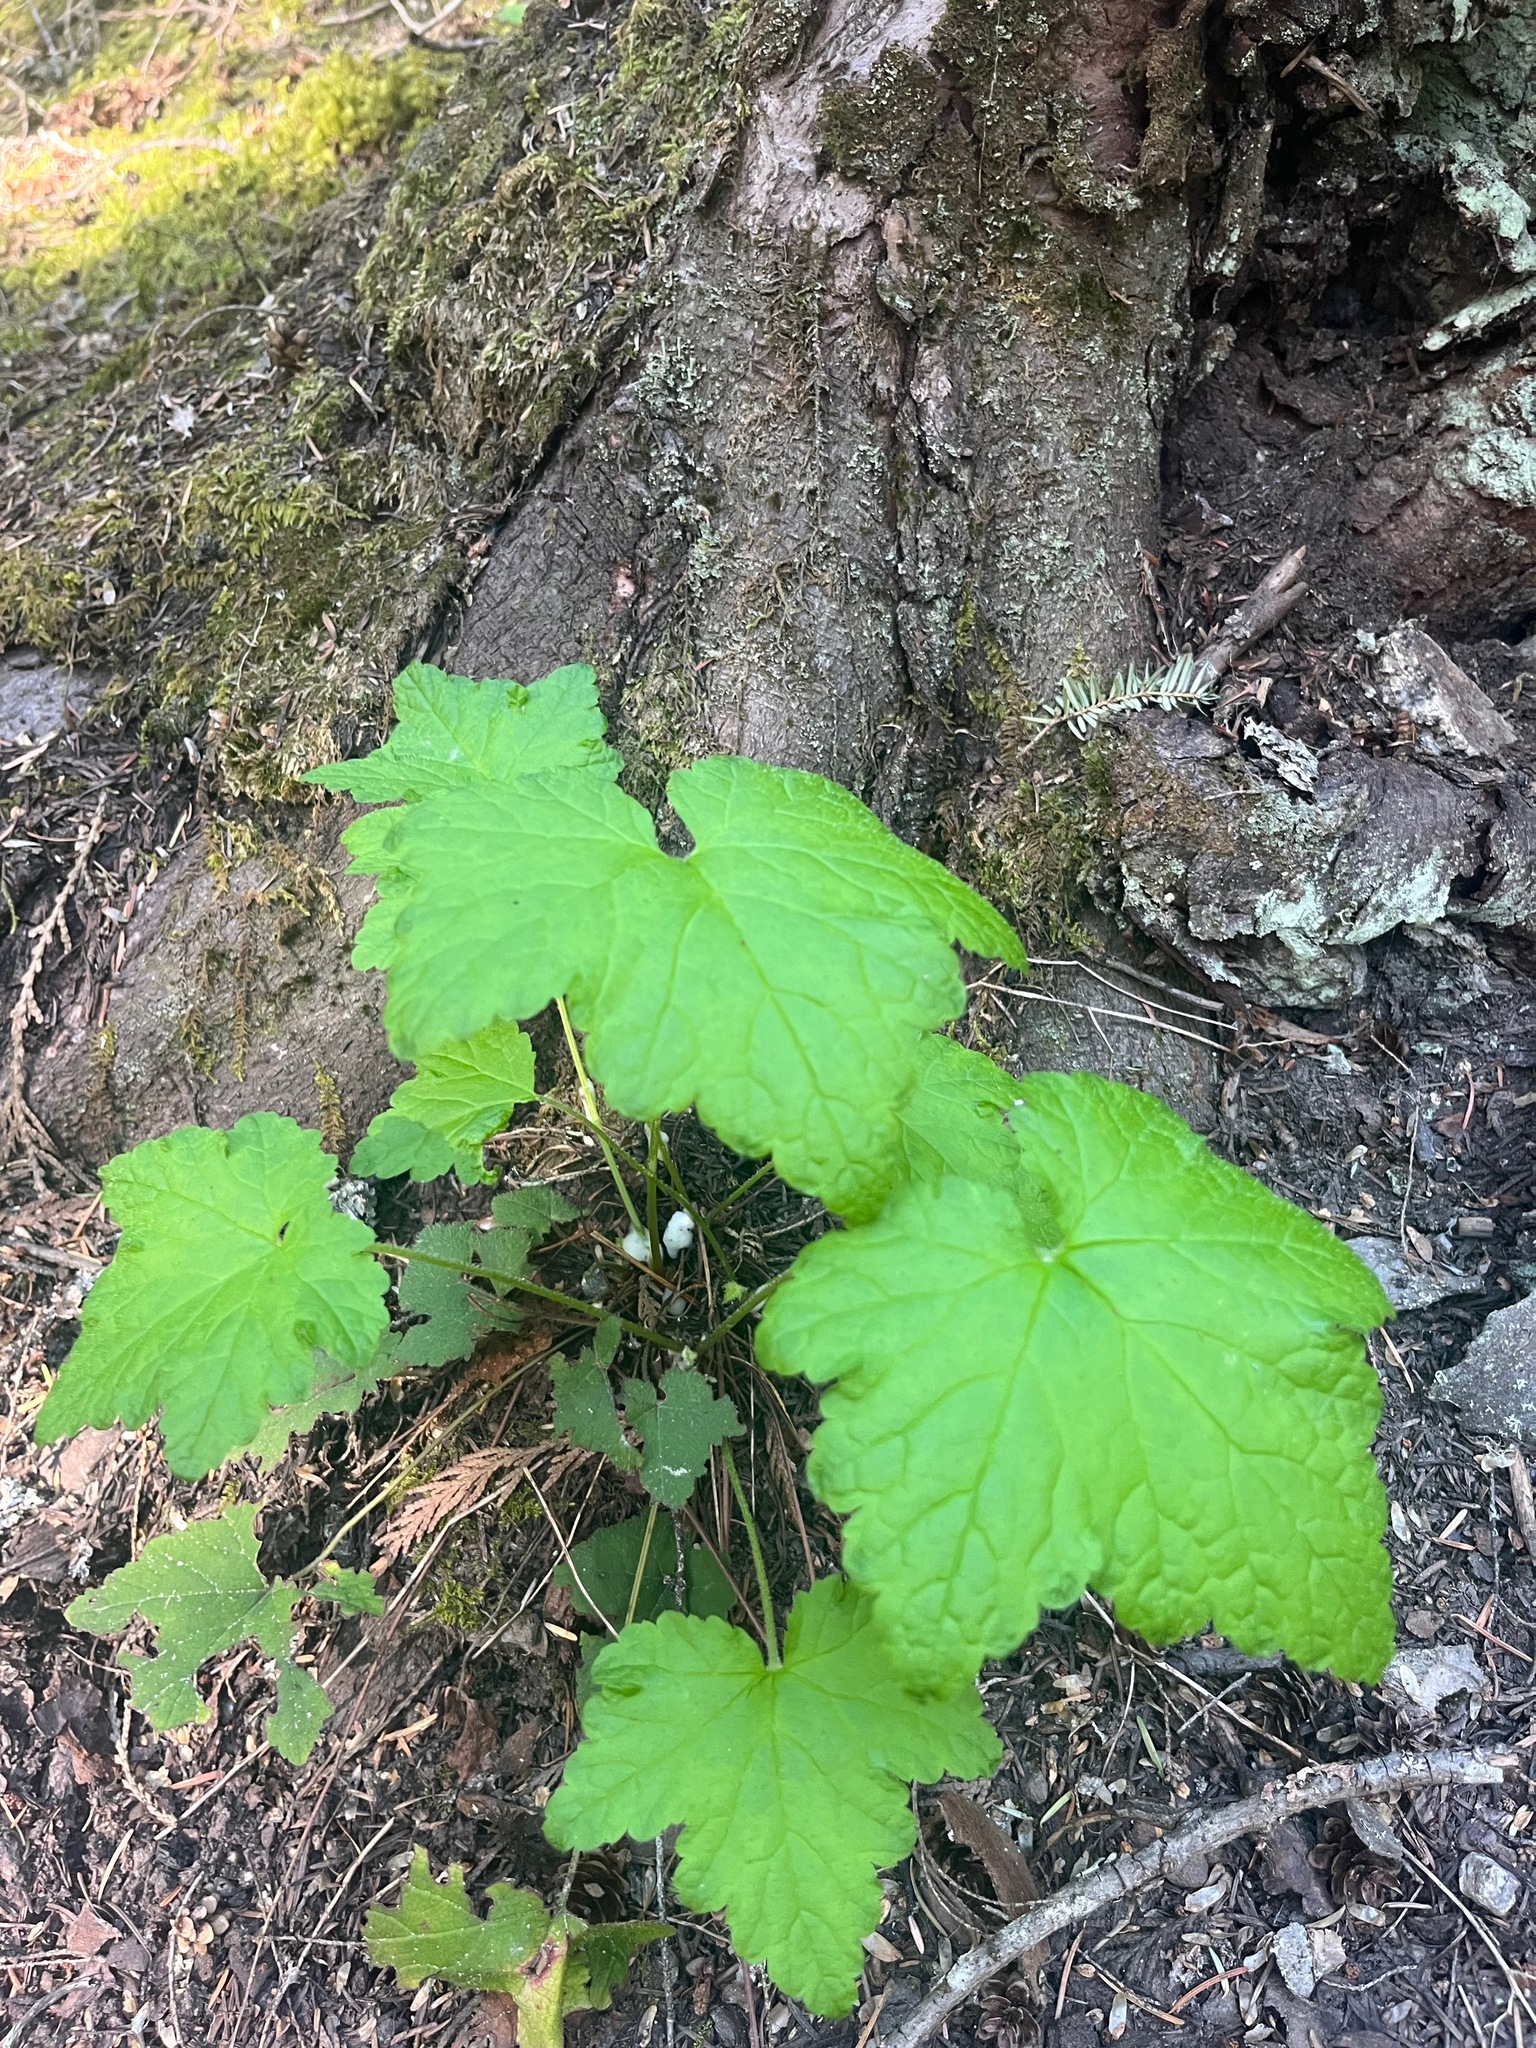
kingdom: Plantae
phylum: Tracheophyta
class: Magnoliopsida
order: Rosales
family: Rosaceae
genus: Rubus
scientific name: Rubus parviflorus
